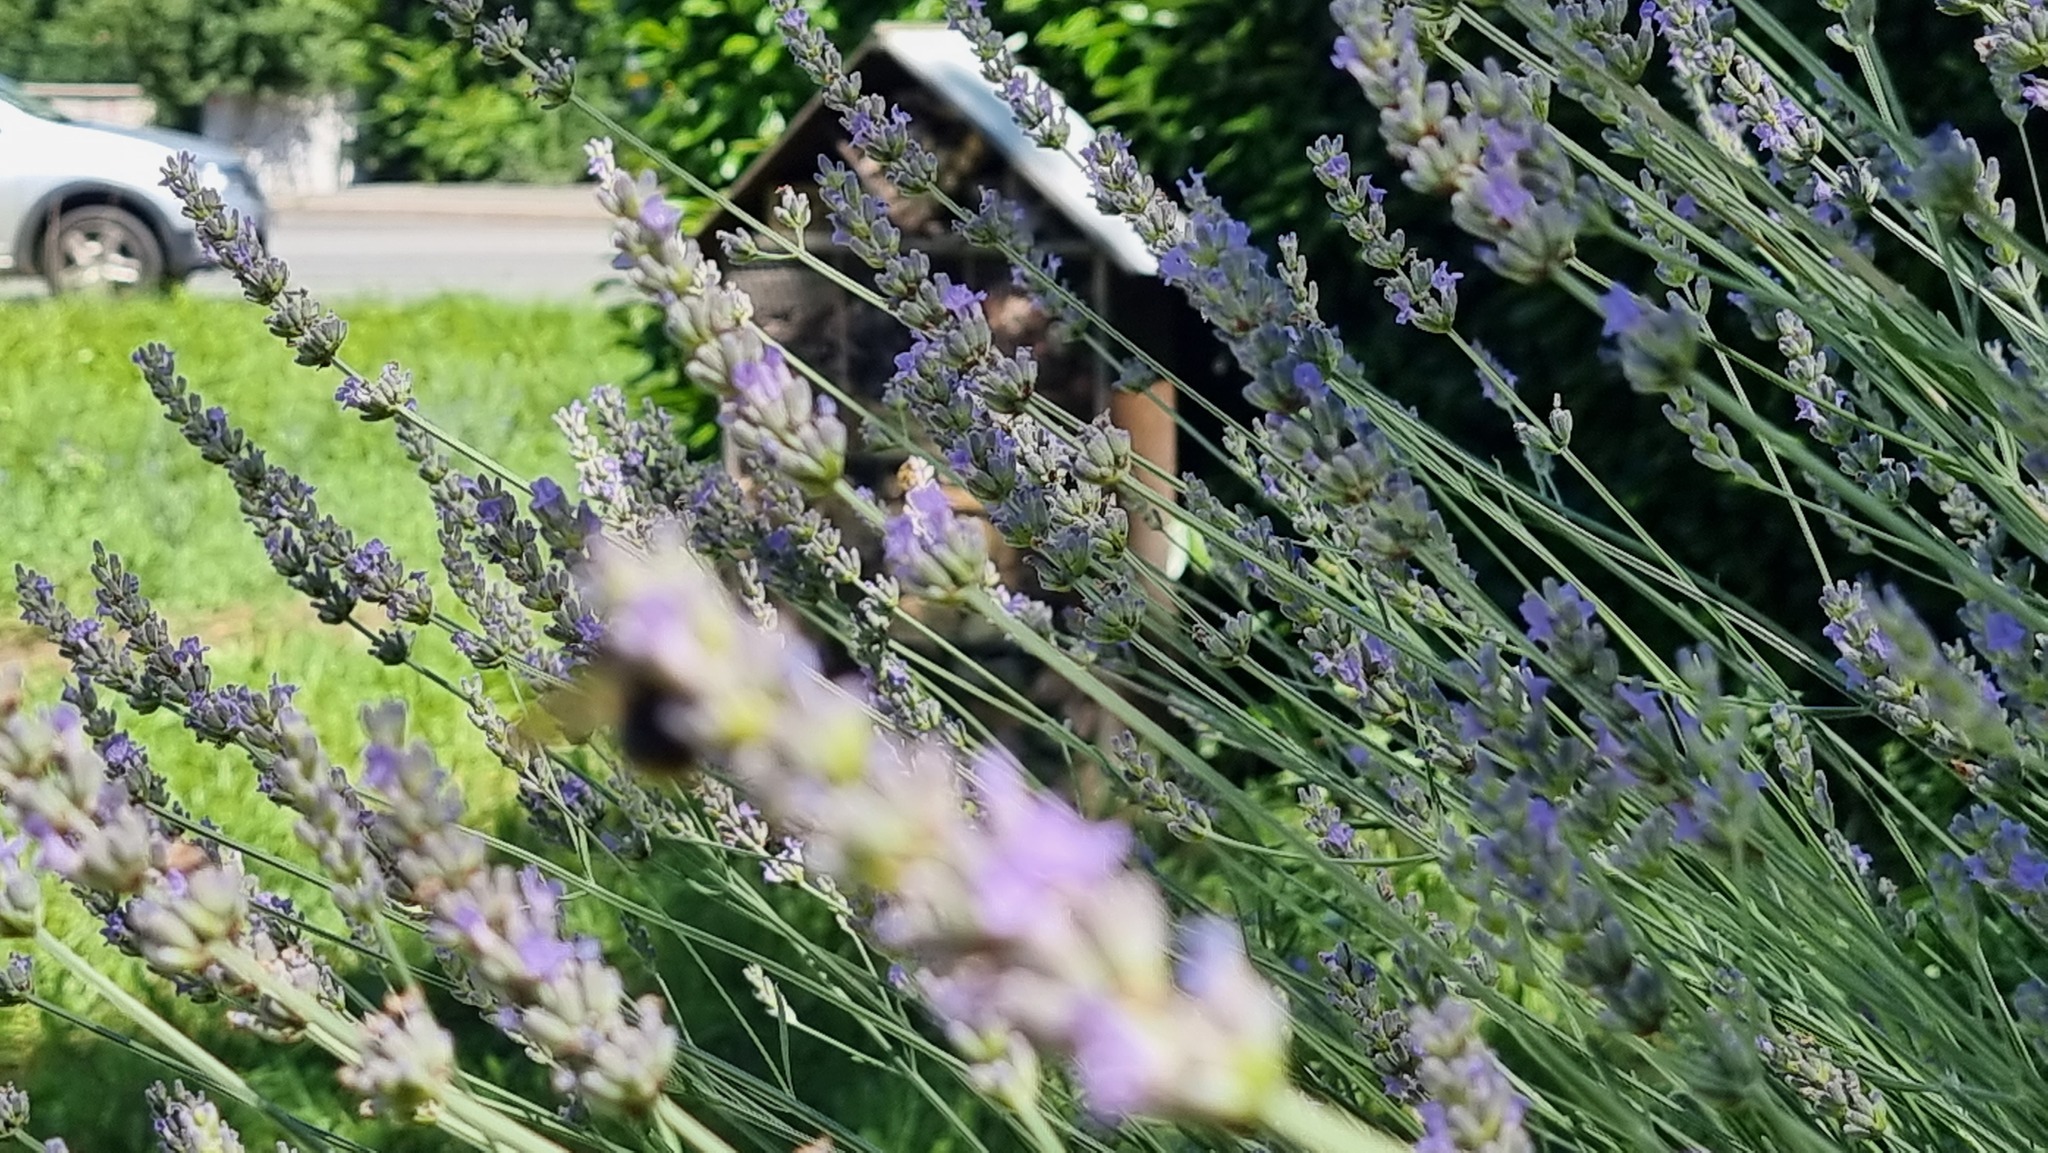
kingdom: Animalia
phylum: Arthropoda
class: Insecta
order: Hymenoptera
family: Apidae
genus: Bombus
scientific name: Bombus pascuorum
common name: Common carder bee
